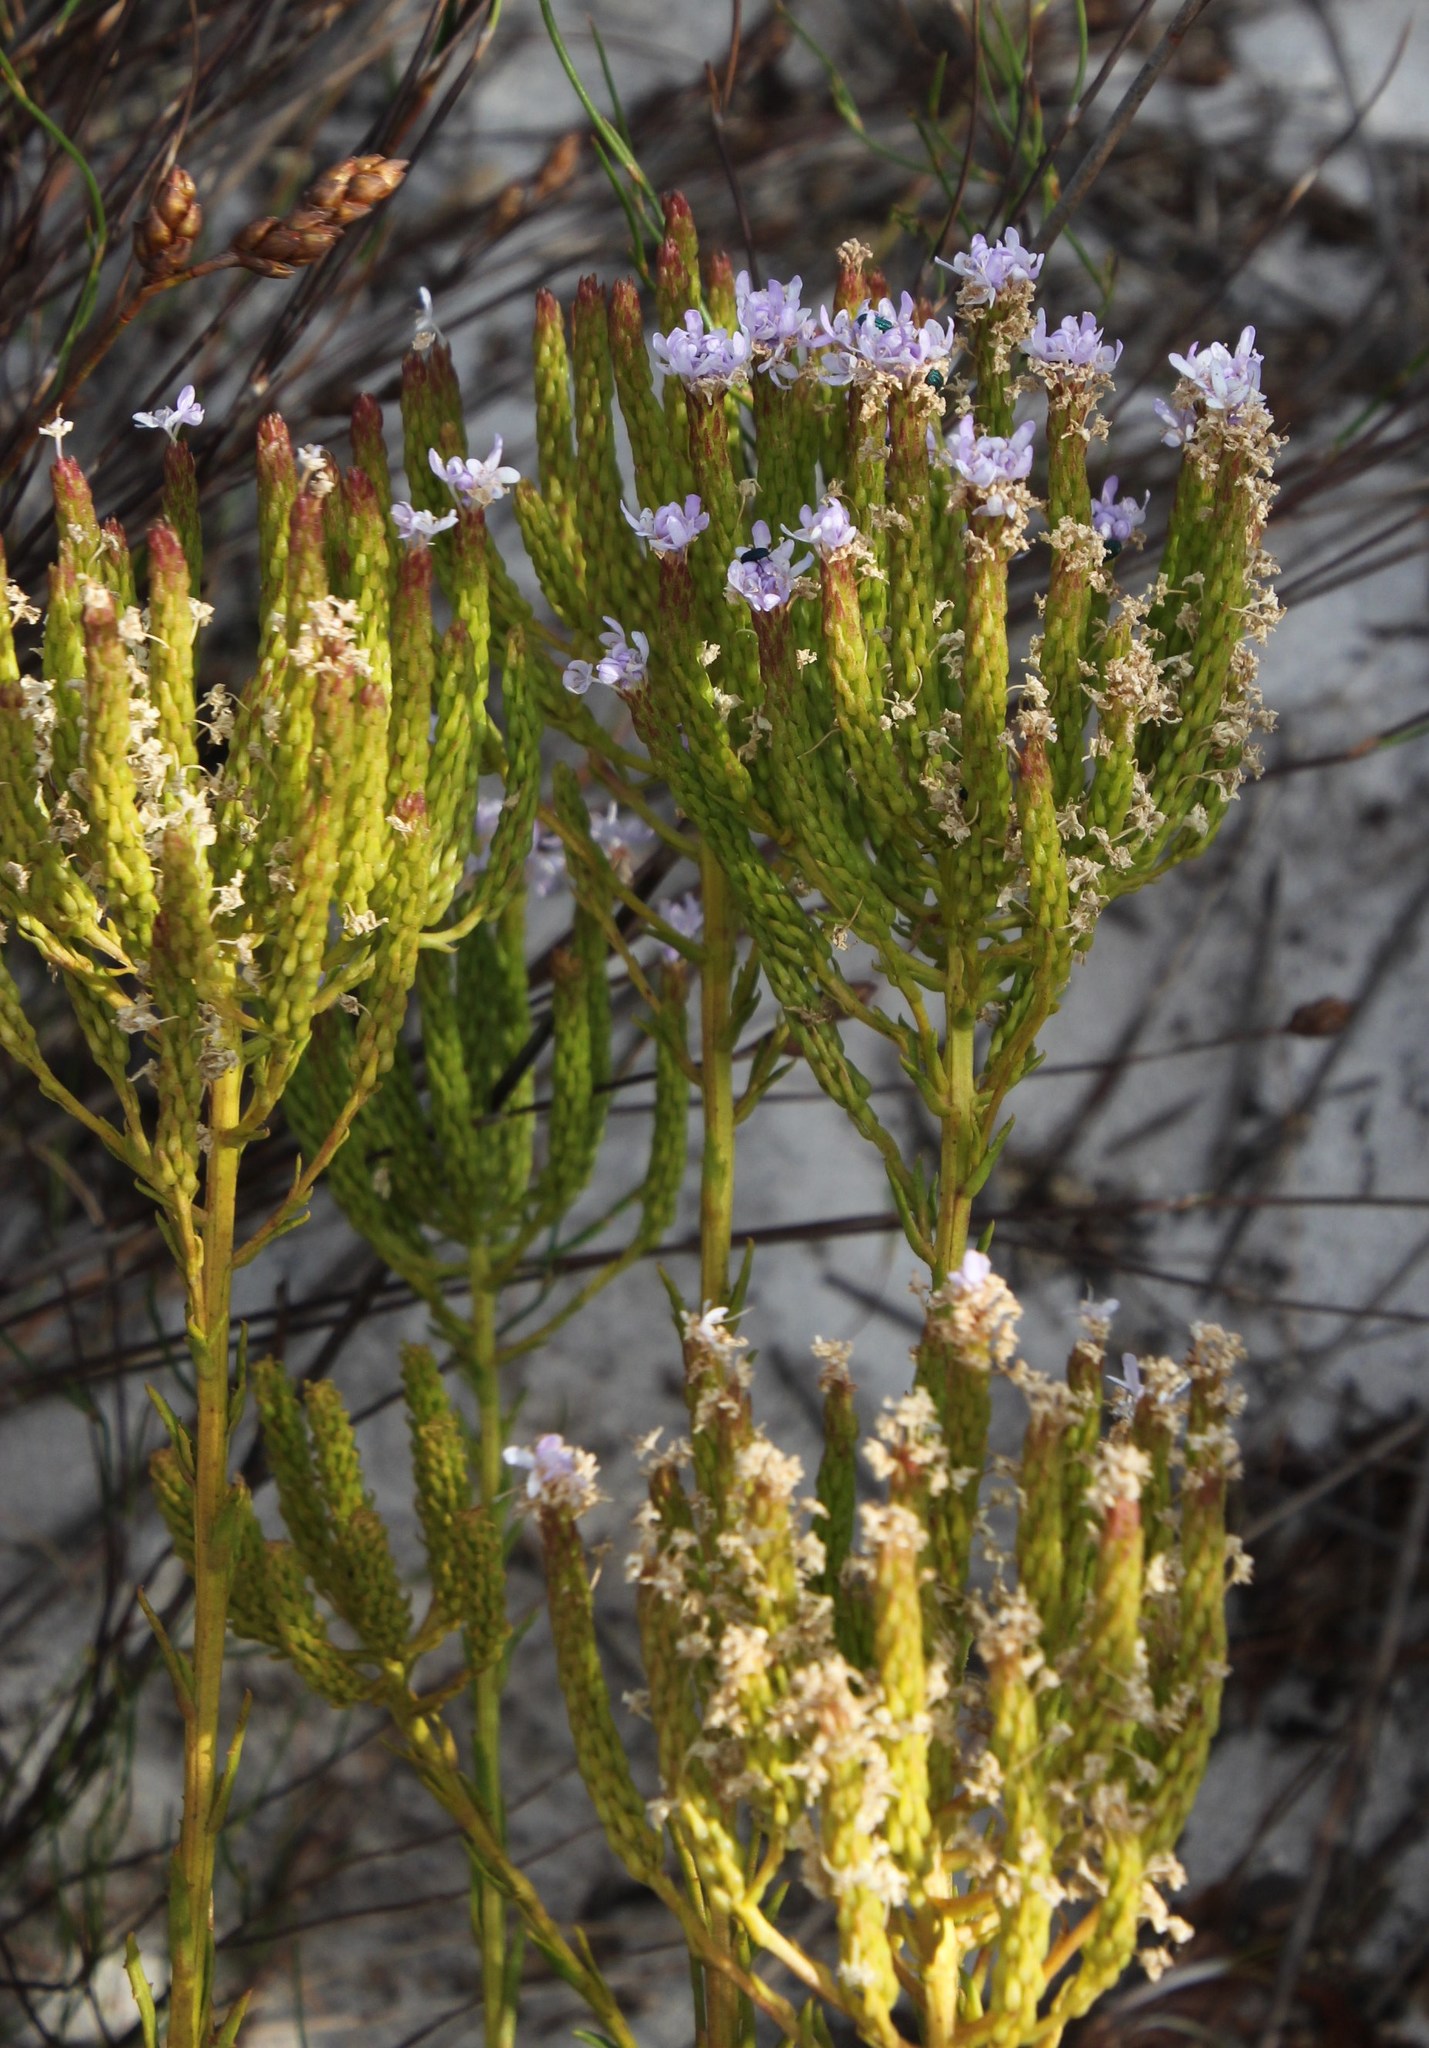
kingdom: Plantae
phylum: Tracheophyta
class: Magnoliopsida
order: Lamiales
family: Scrophulariaceae
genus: Pseudoselago
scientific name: Pseudoselago spuria
